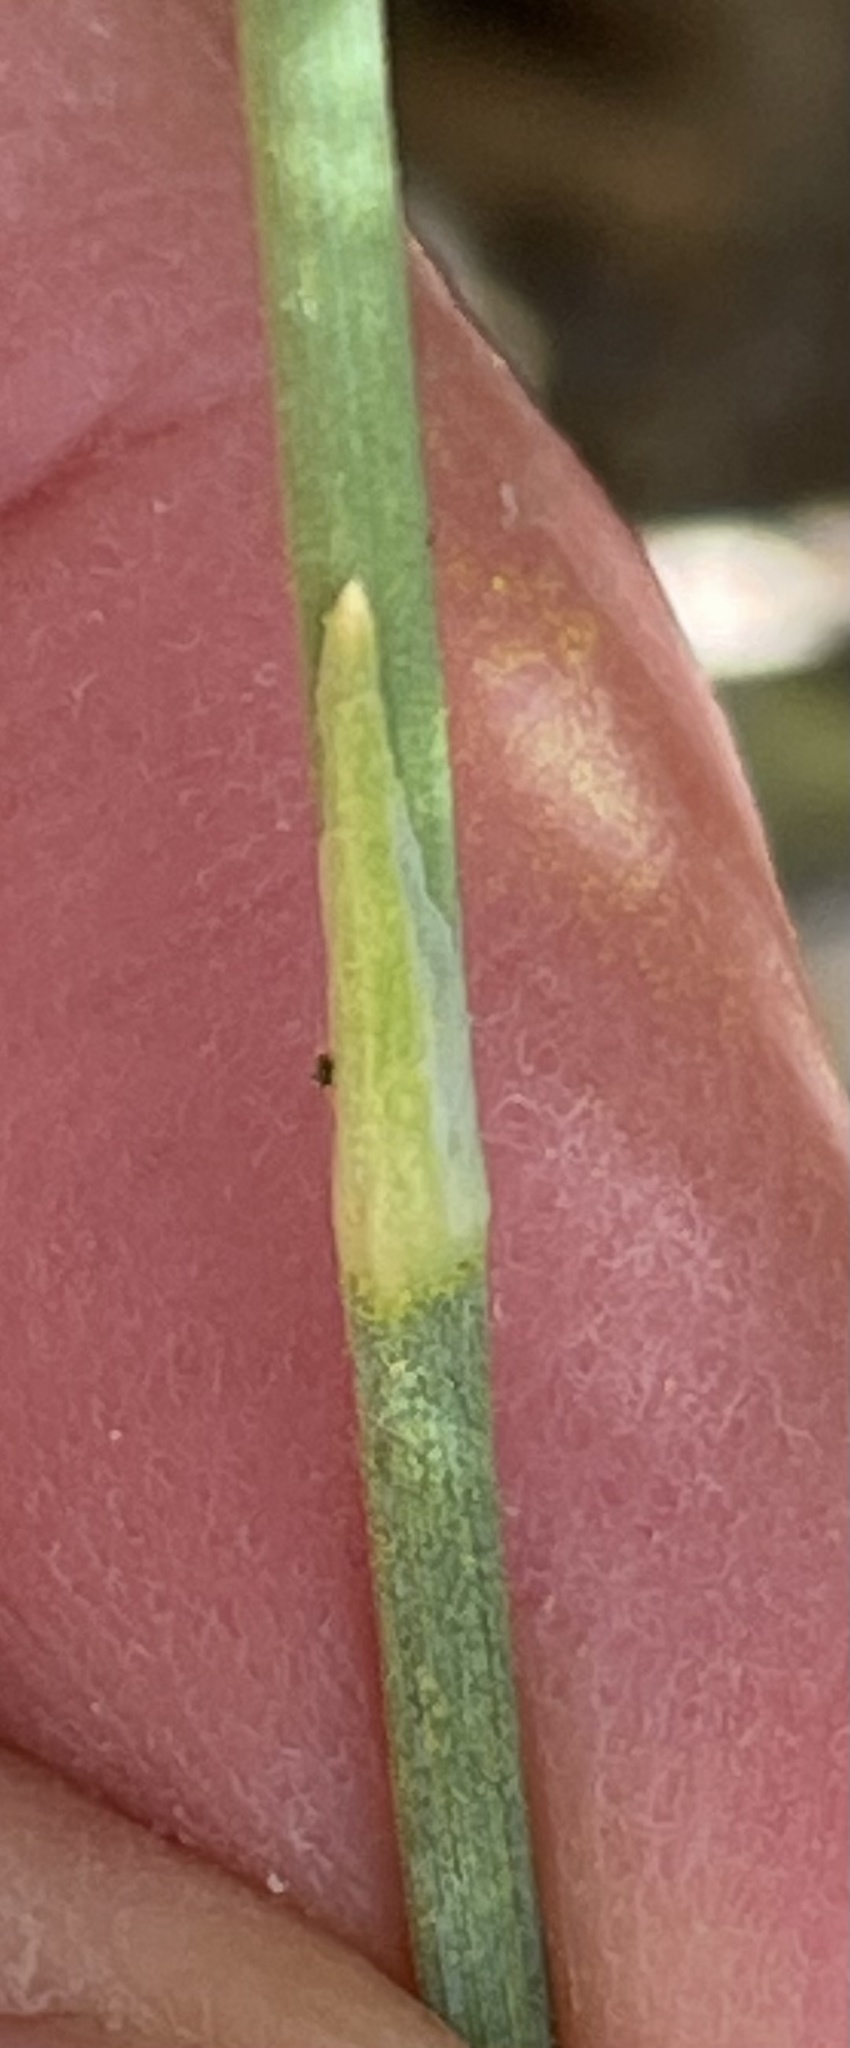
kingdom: Plantae
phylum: Tracheophyta
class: Gnetopsida
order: Ephedrales
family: Ephedraceae
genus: Ephedra
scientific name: Ephedra nevadensis
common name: Gray ephedra
